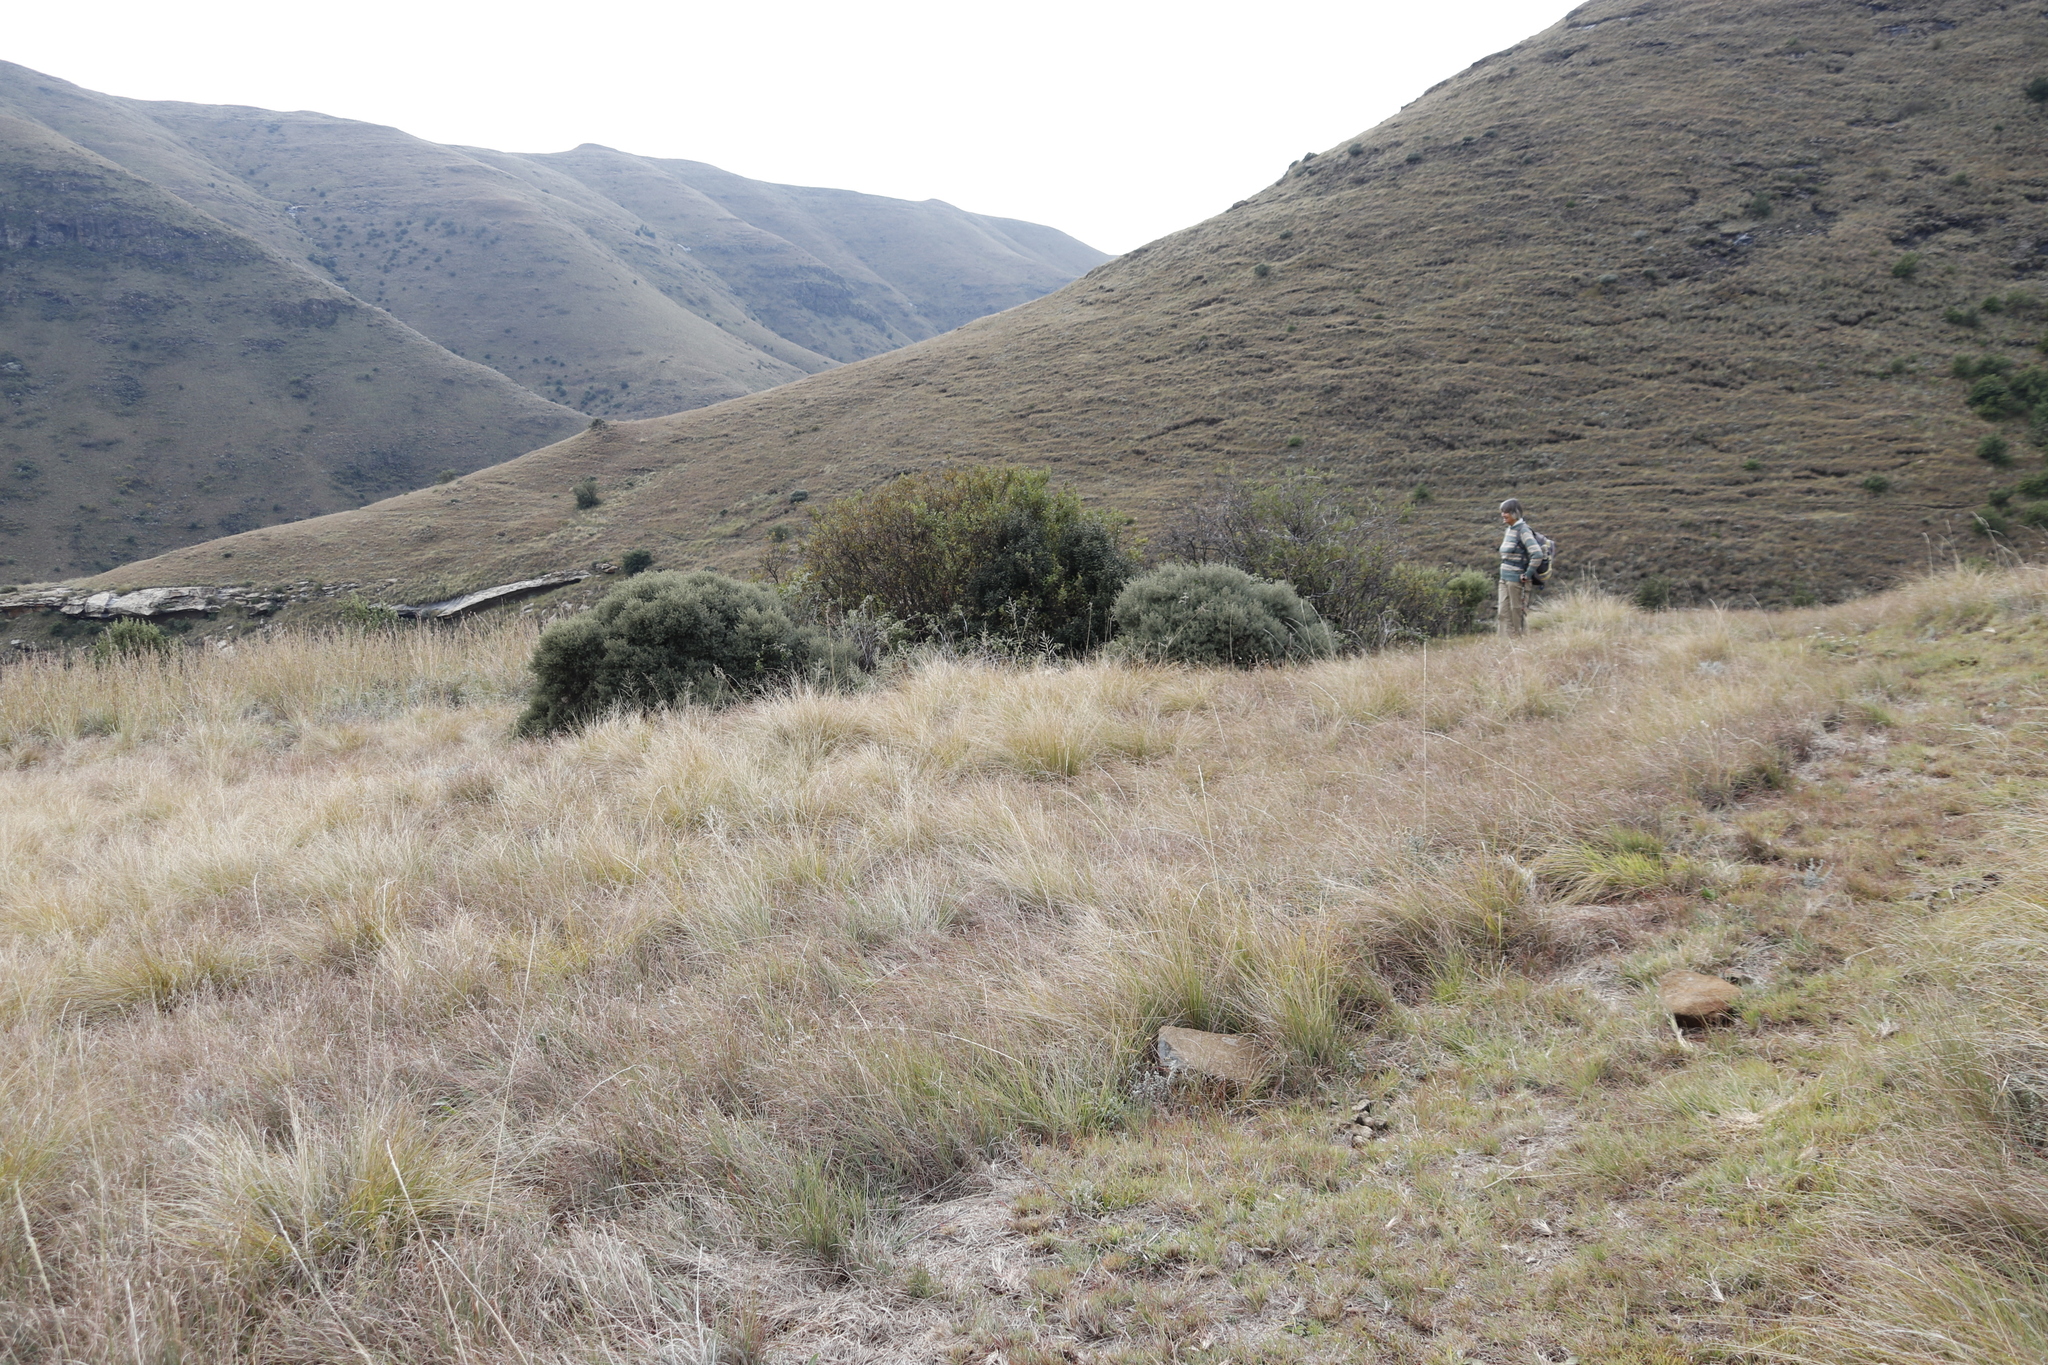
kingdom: Plantae
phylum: Tracheophyta
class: Magnoliopsida
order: Ericales
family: Ebenaceae
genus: Diospyros
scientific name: Diospyros pubescens
